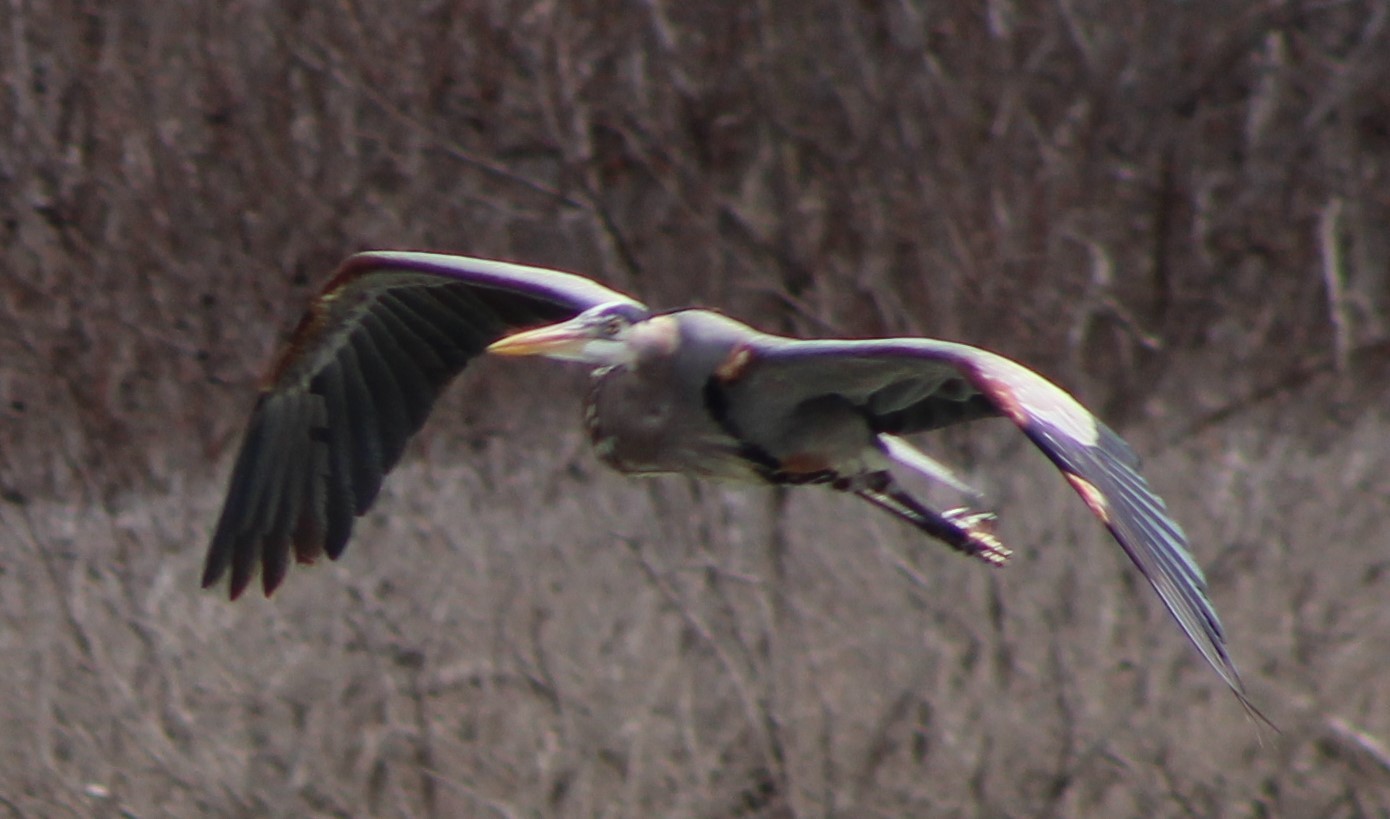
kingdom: Animalia
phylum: Chordata
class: Aves
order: Pelecaniformes
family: Ardeidae
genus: Ardea
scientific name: Ardea herodias
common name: Great blue heron
